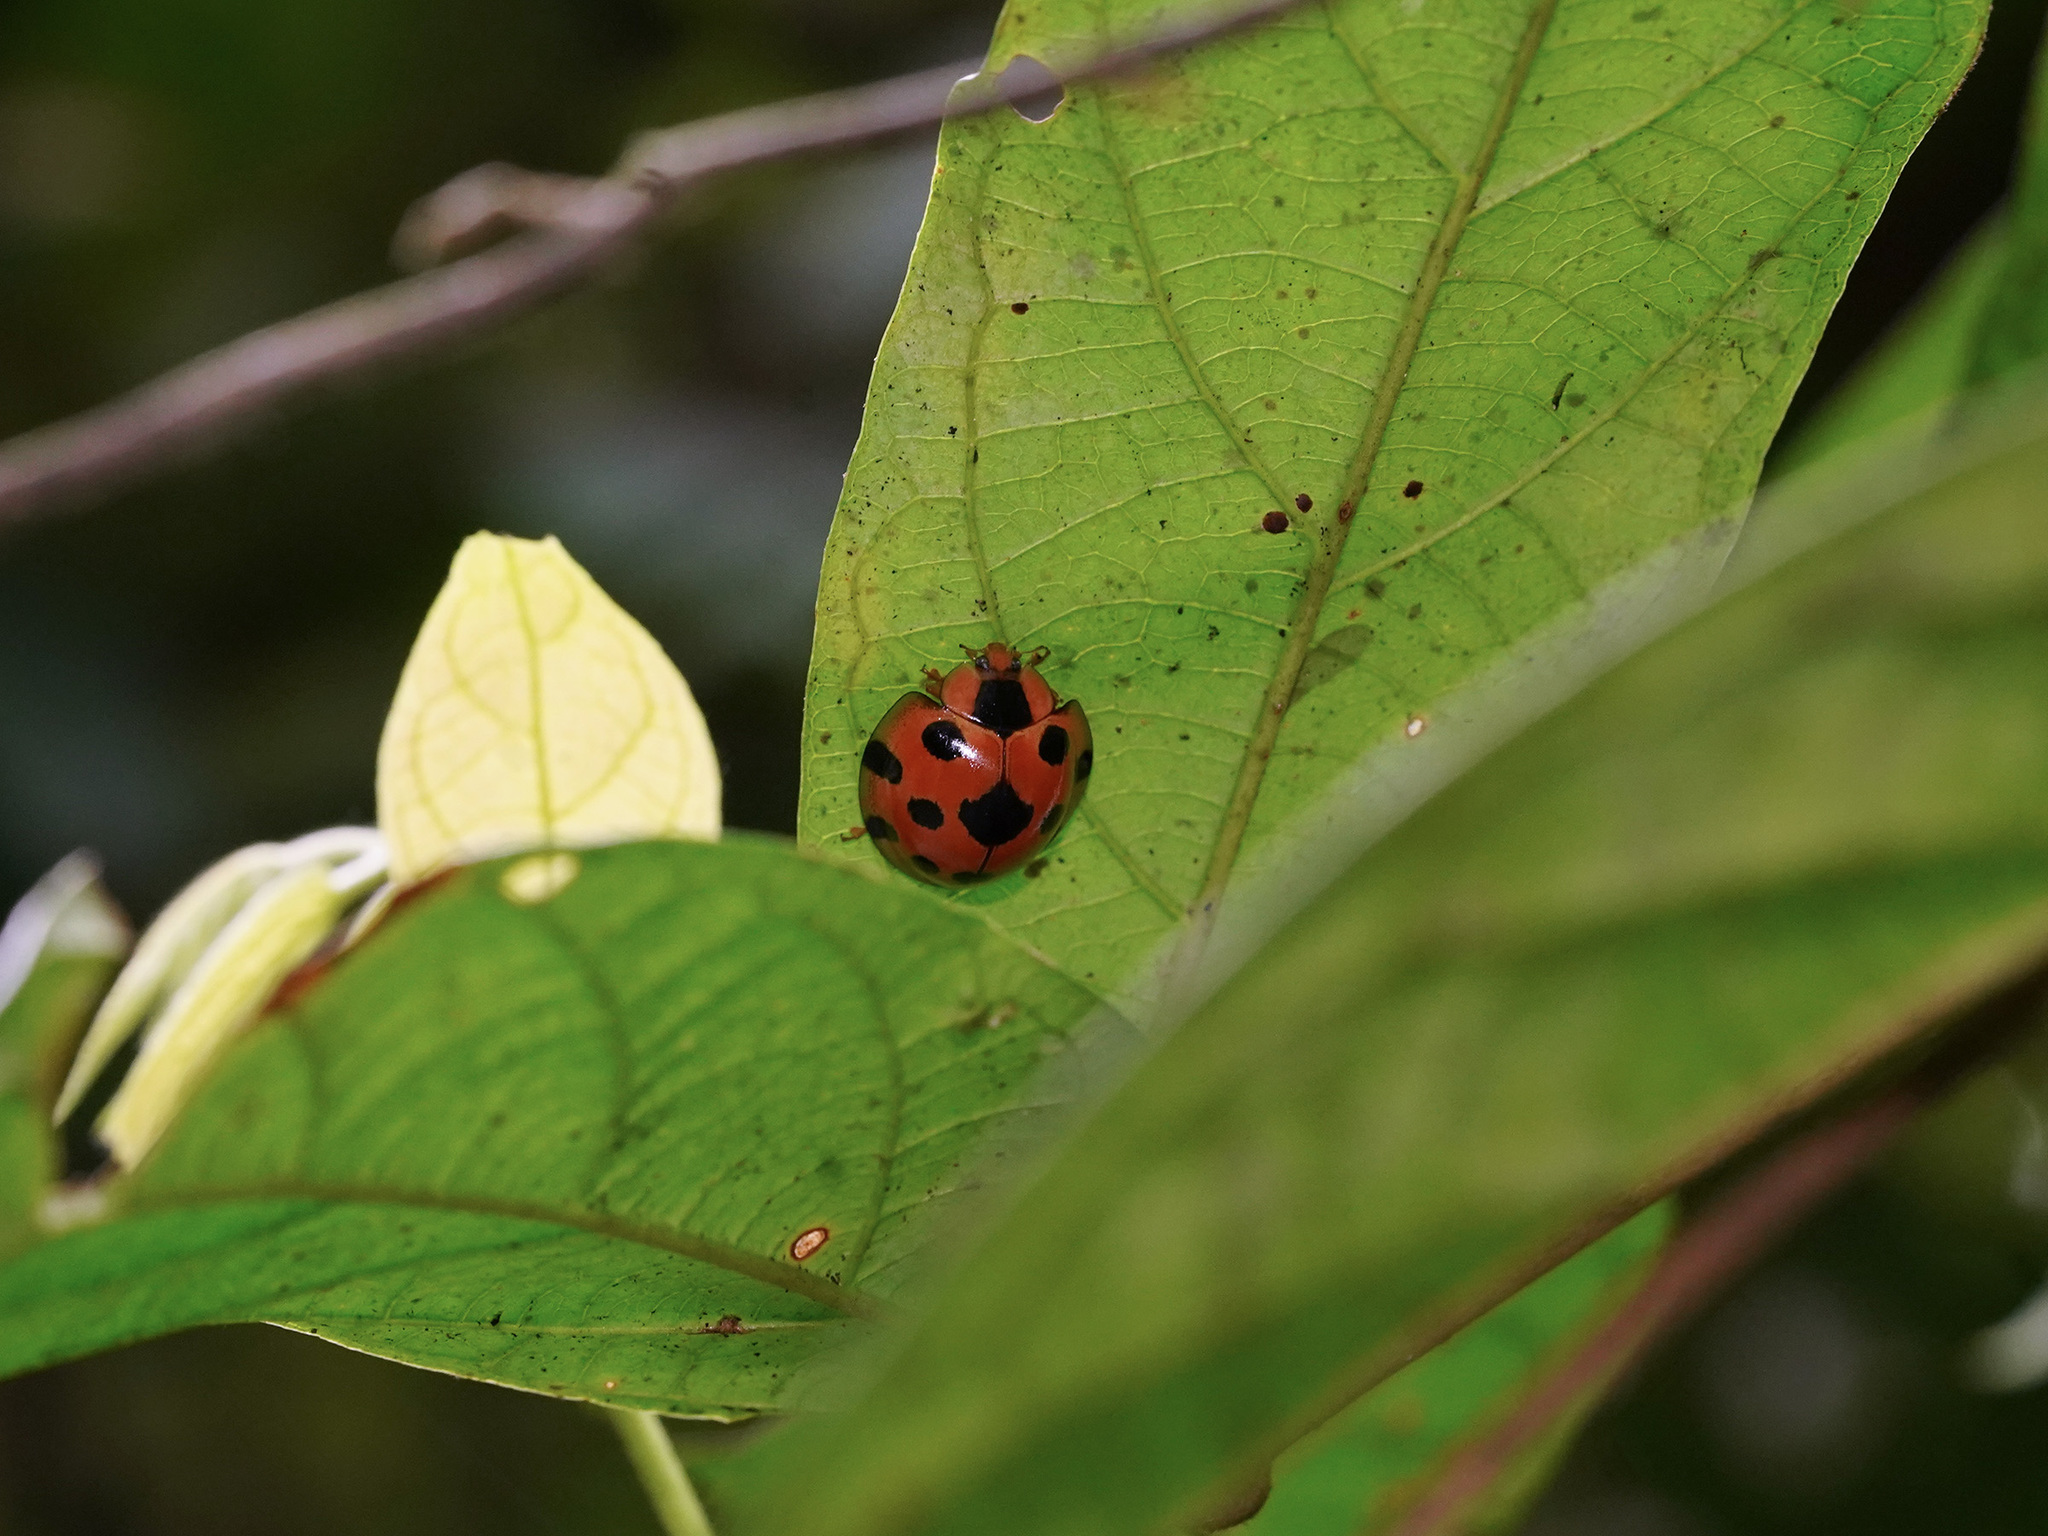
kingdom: Animalia
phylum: Arthropoda
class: Insecta
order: Coleoptera
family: Coccinellidae
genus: Synonycha
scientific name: Synonycha grandis
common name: Lady beetle
